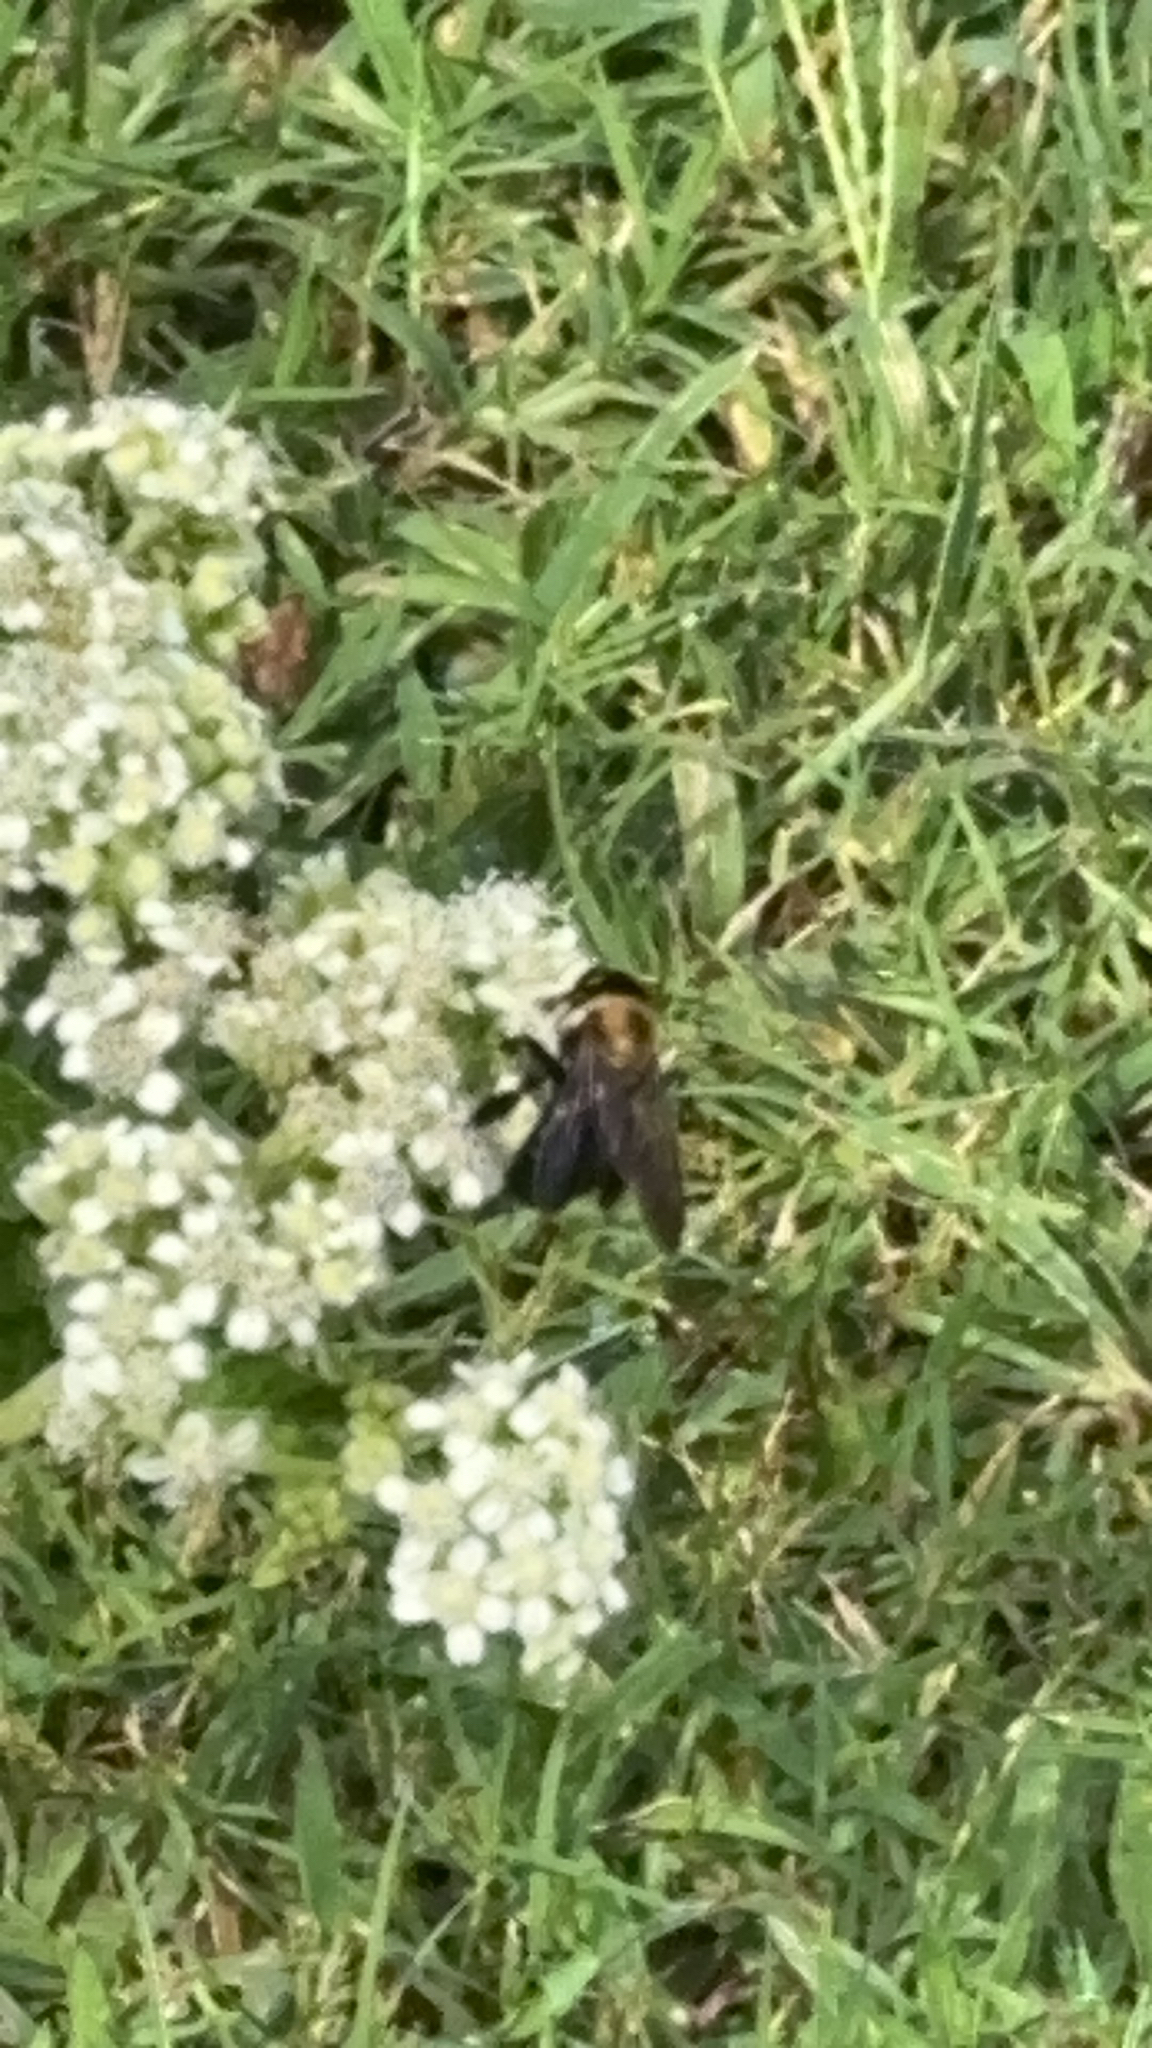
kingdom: Animalia
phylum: Arthropoda
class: Insecta
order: Hymenoptera
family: Apidae
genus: Xylocopa
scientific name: Xylocopa virginica
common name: Carpenter bee
